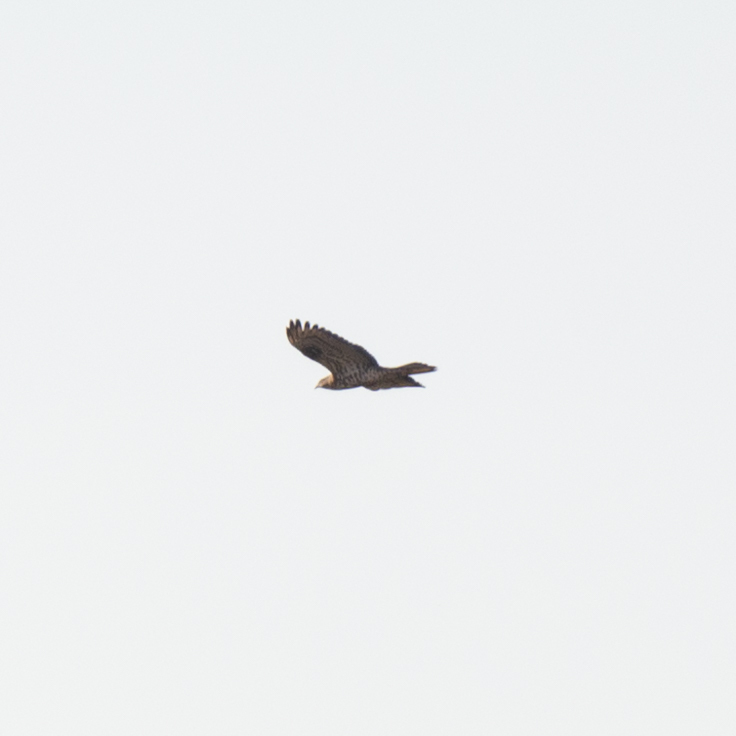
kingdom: Animalia
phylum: Chordata
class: Aves
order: Accipitriformes
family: Accipitridae
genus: Pernis
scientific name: Pernis apivorus
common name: European honey buzzard
